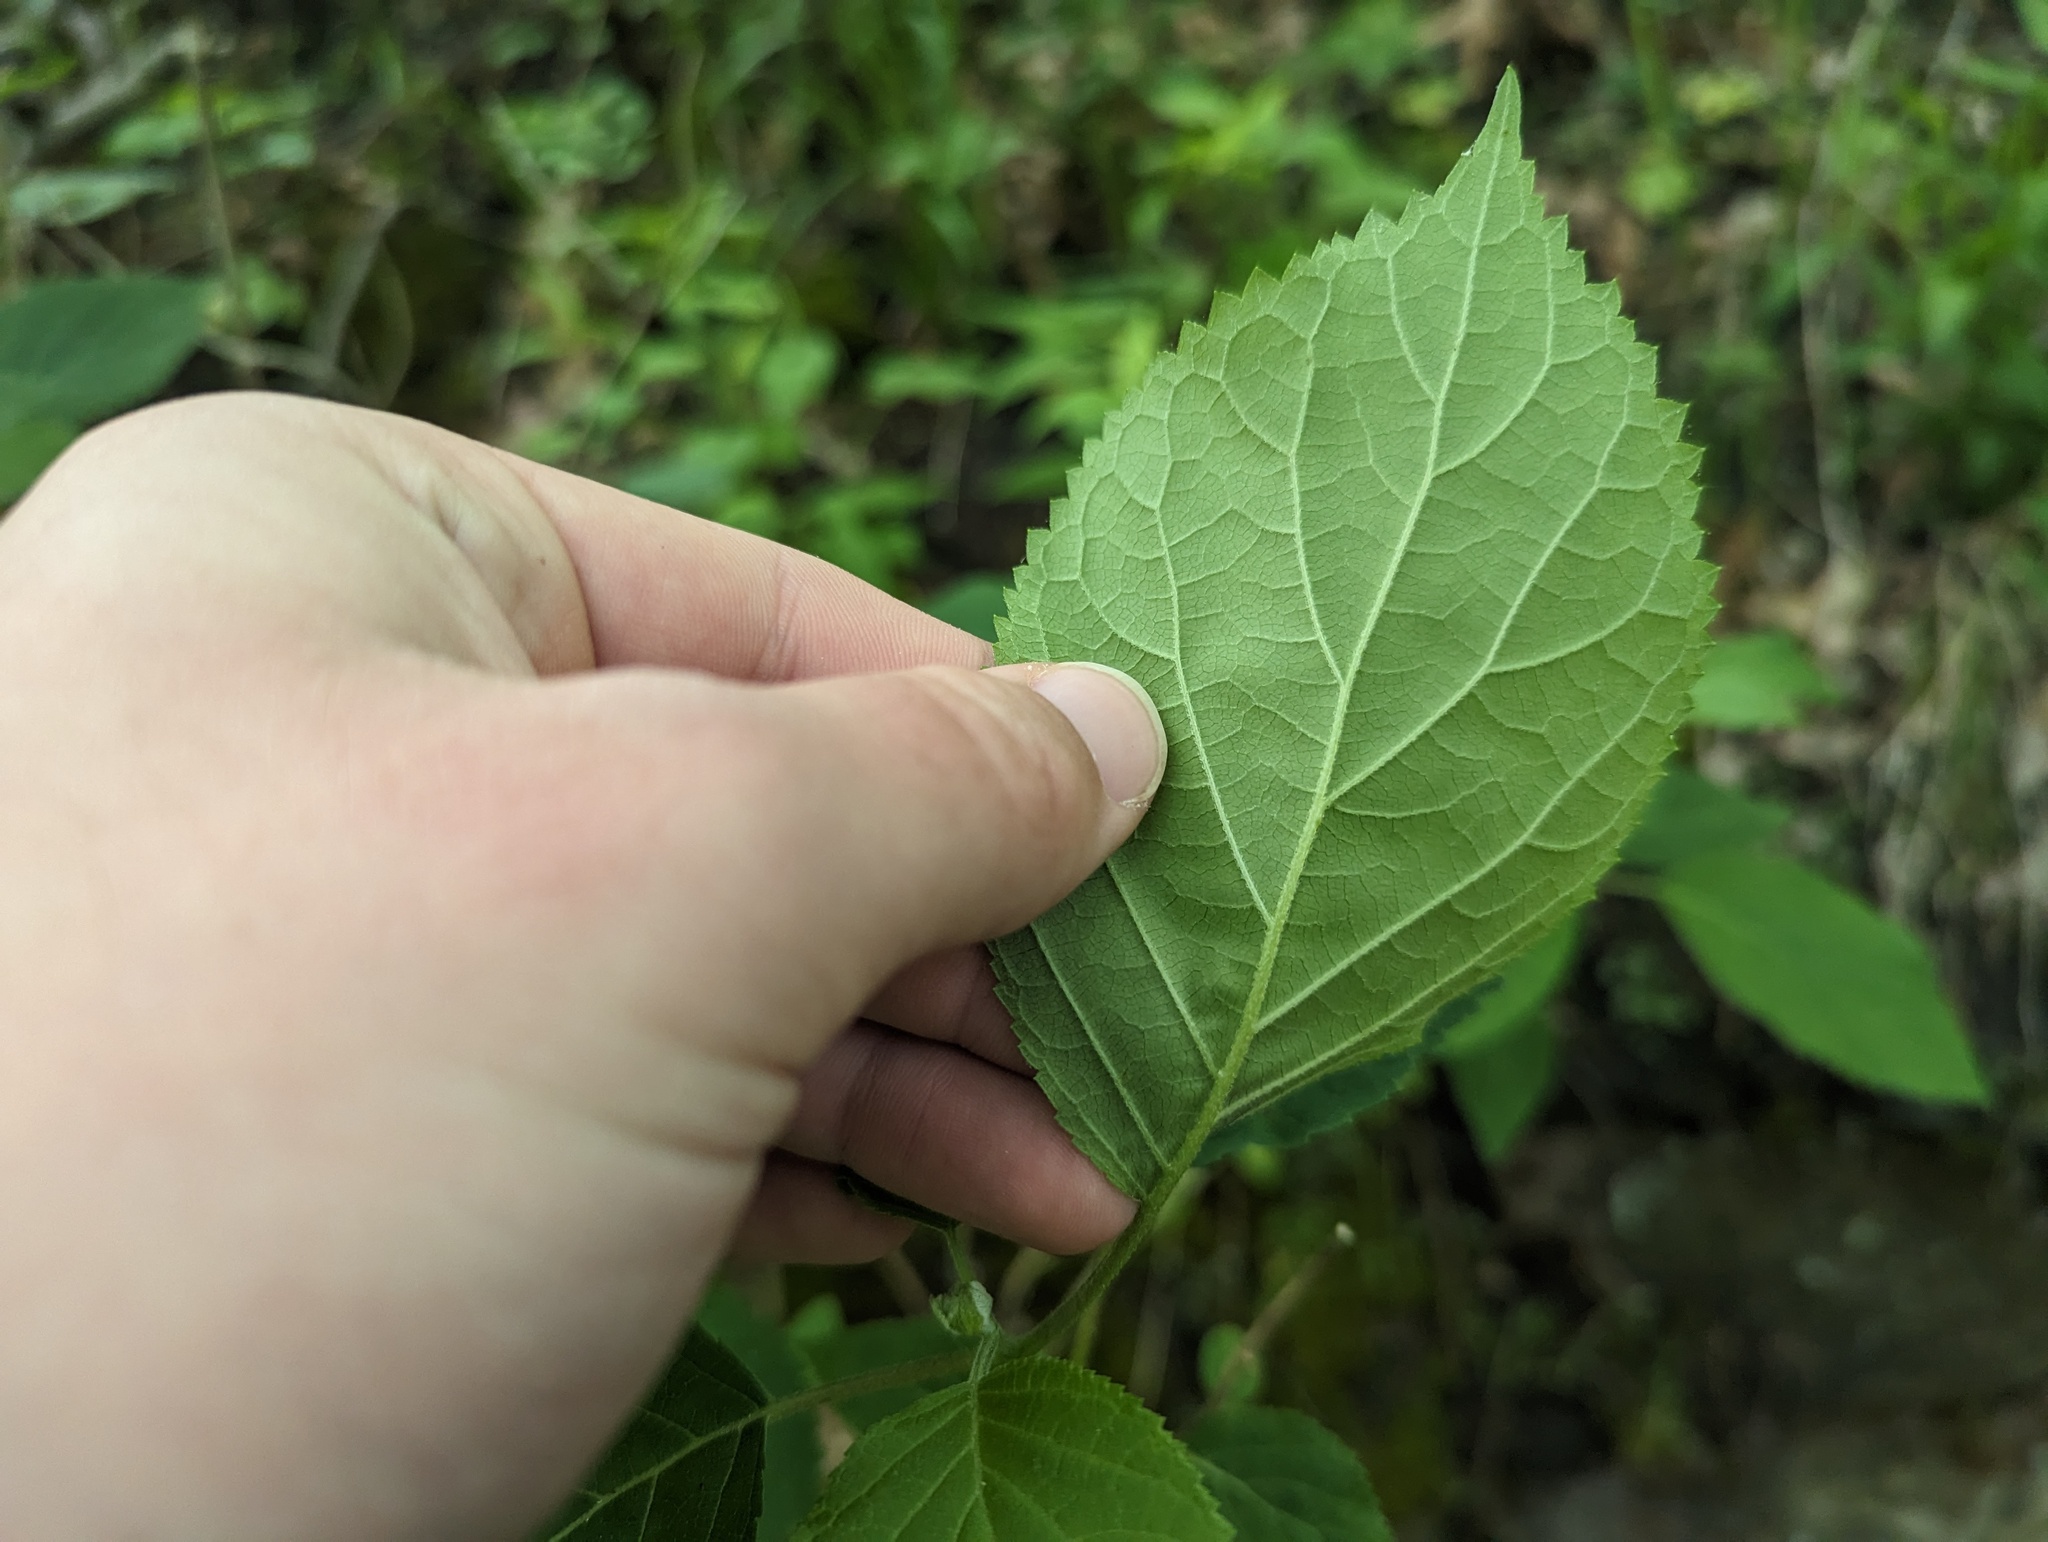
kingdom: Plantae
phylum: Tracheophyta
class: Magnoliopsida
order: Cornales
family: Hydrangeaceae
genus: Hydrangea
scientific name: Hydrangea arborescens
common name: Sevenbark
